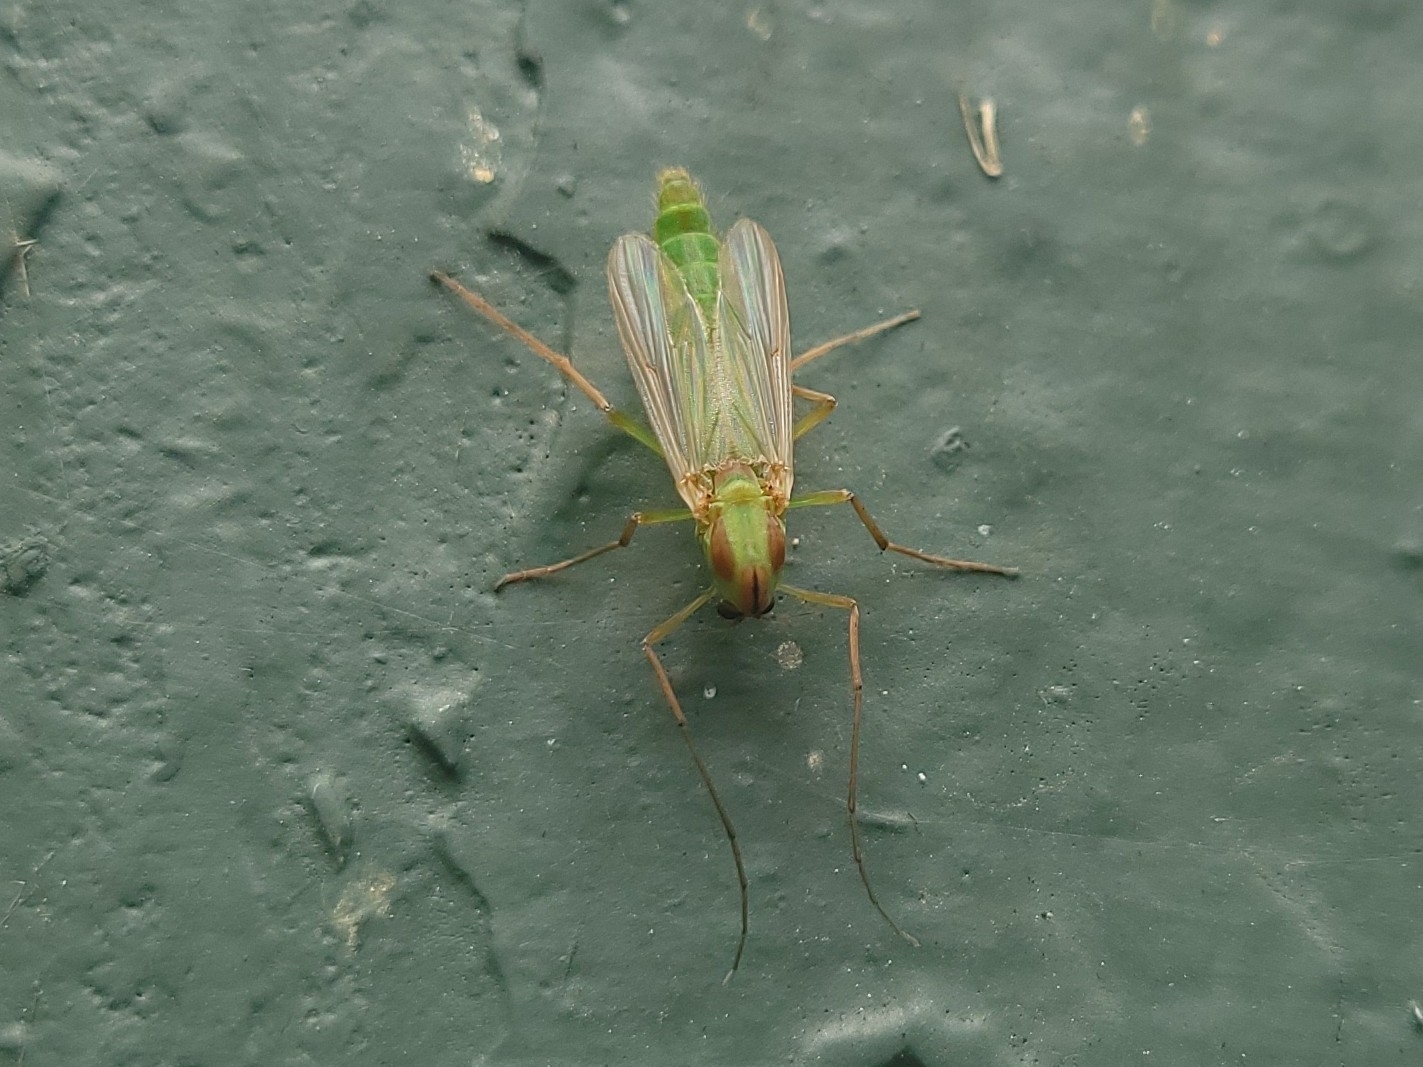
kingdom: Animalia
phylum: Arthropoda
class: Insecta
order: Diptera
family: Chironomidae
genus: Axarus
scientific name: Axarus
